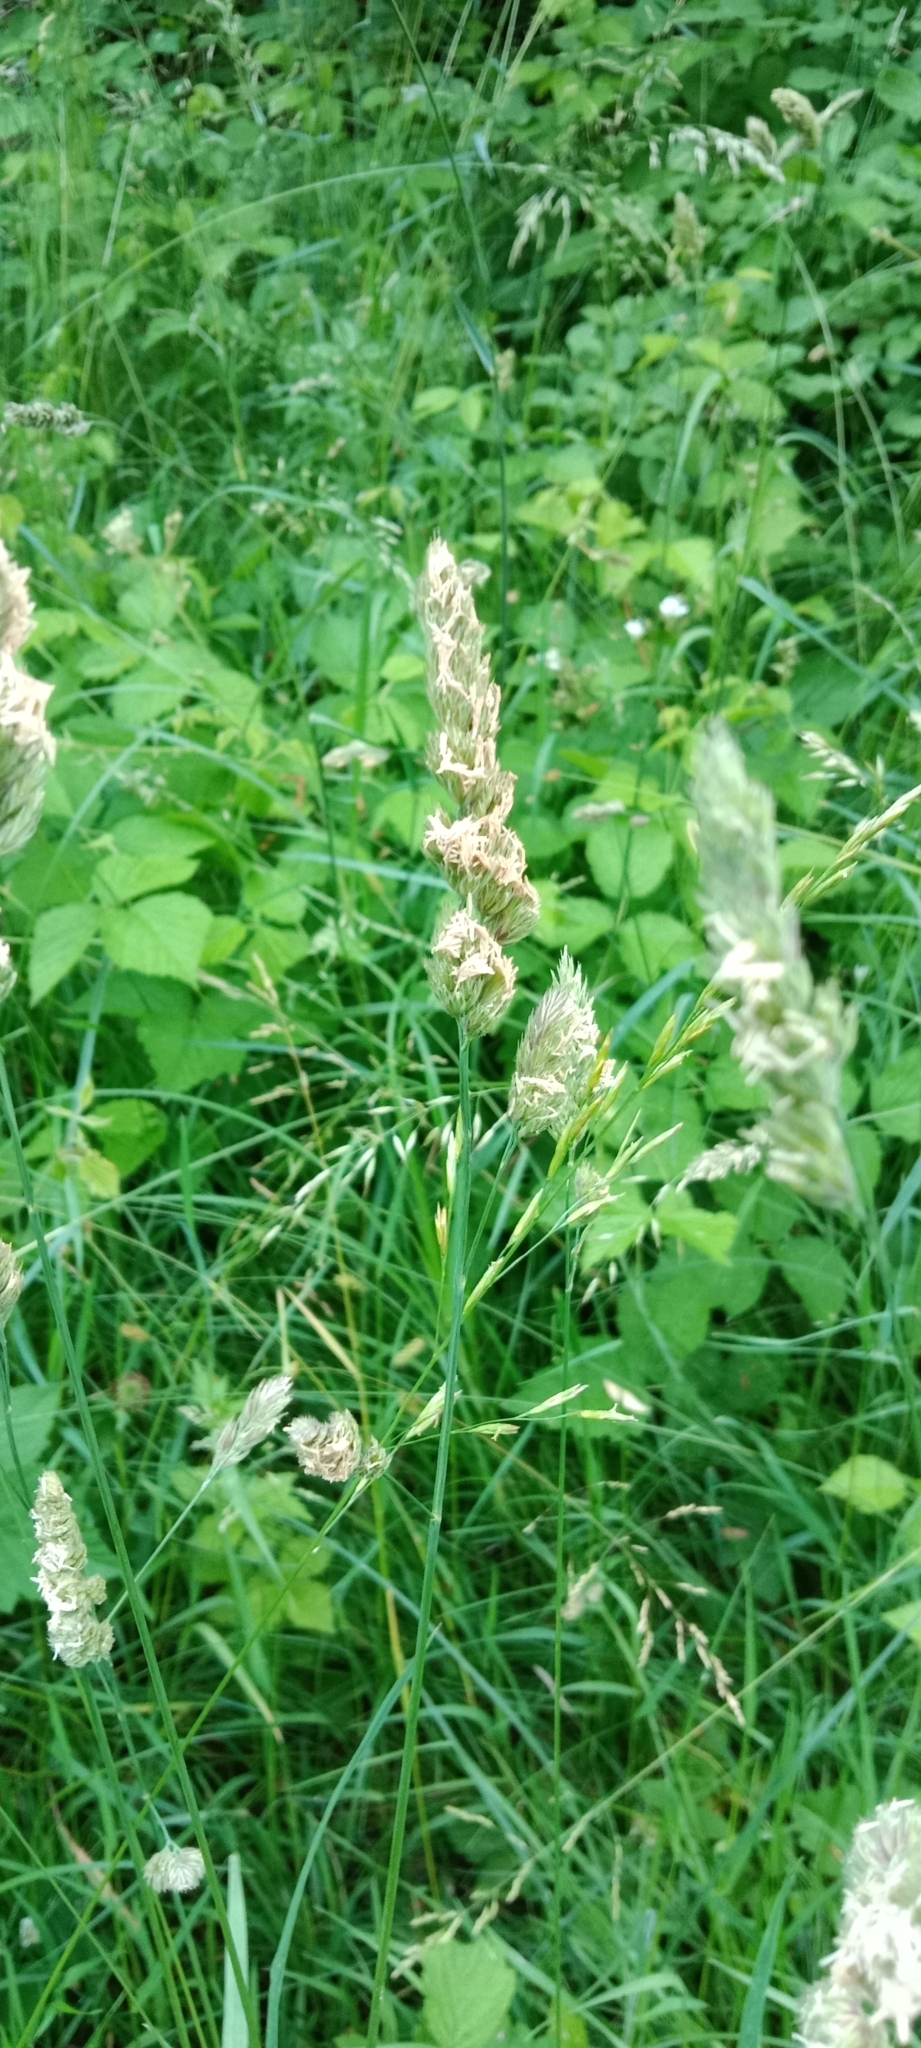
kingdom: Plantae
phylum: Tracheophyta
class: Liliopsida
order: Poales
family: Poaceae
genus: Dactylis
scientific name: Dactylis glomerata
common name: Orchardgrass
